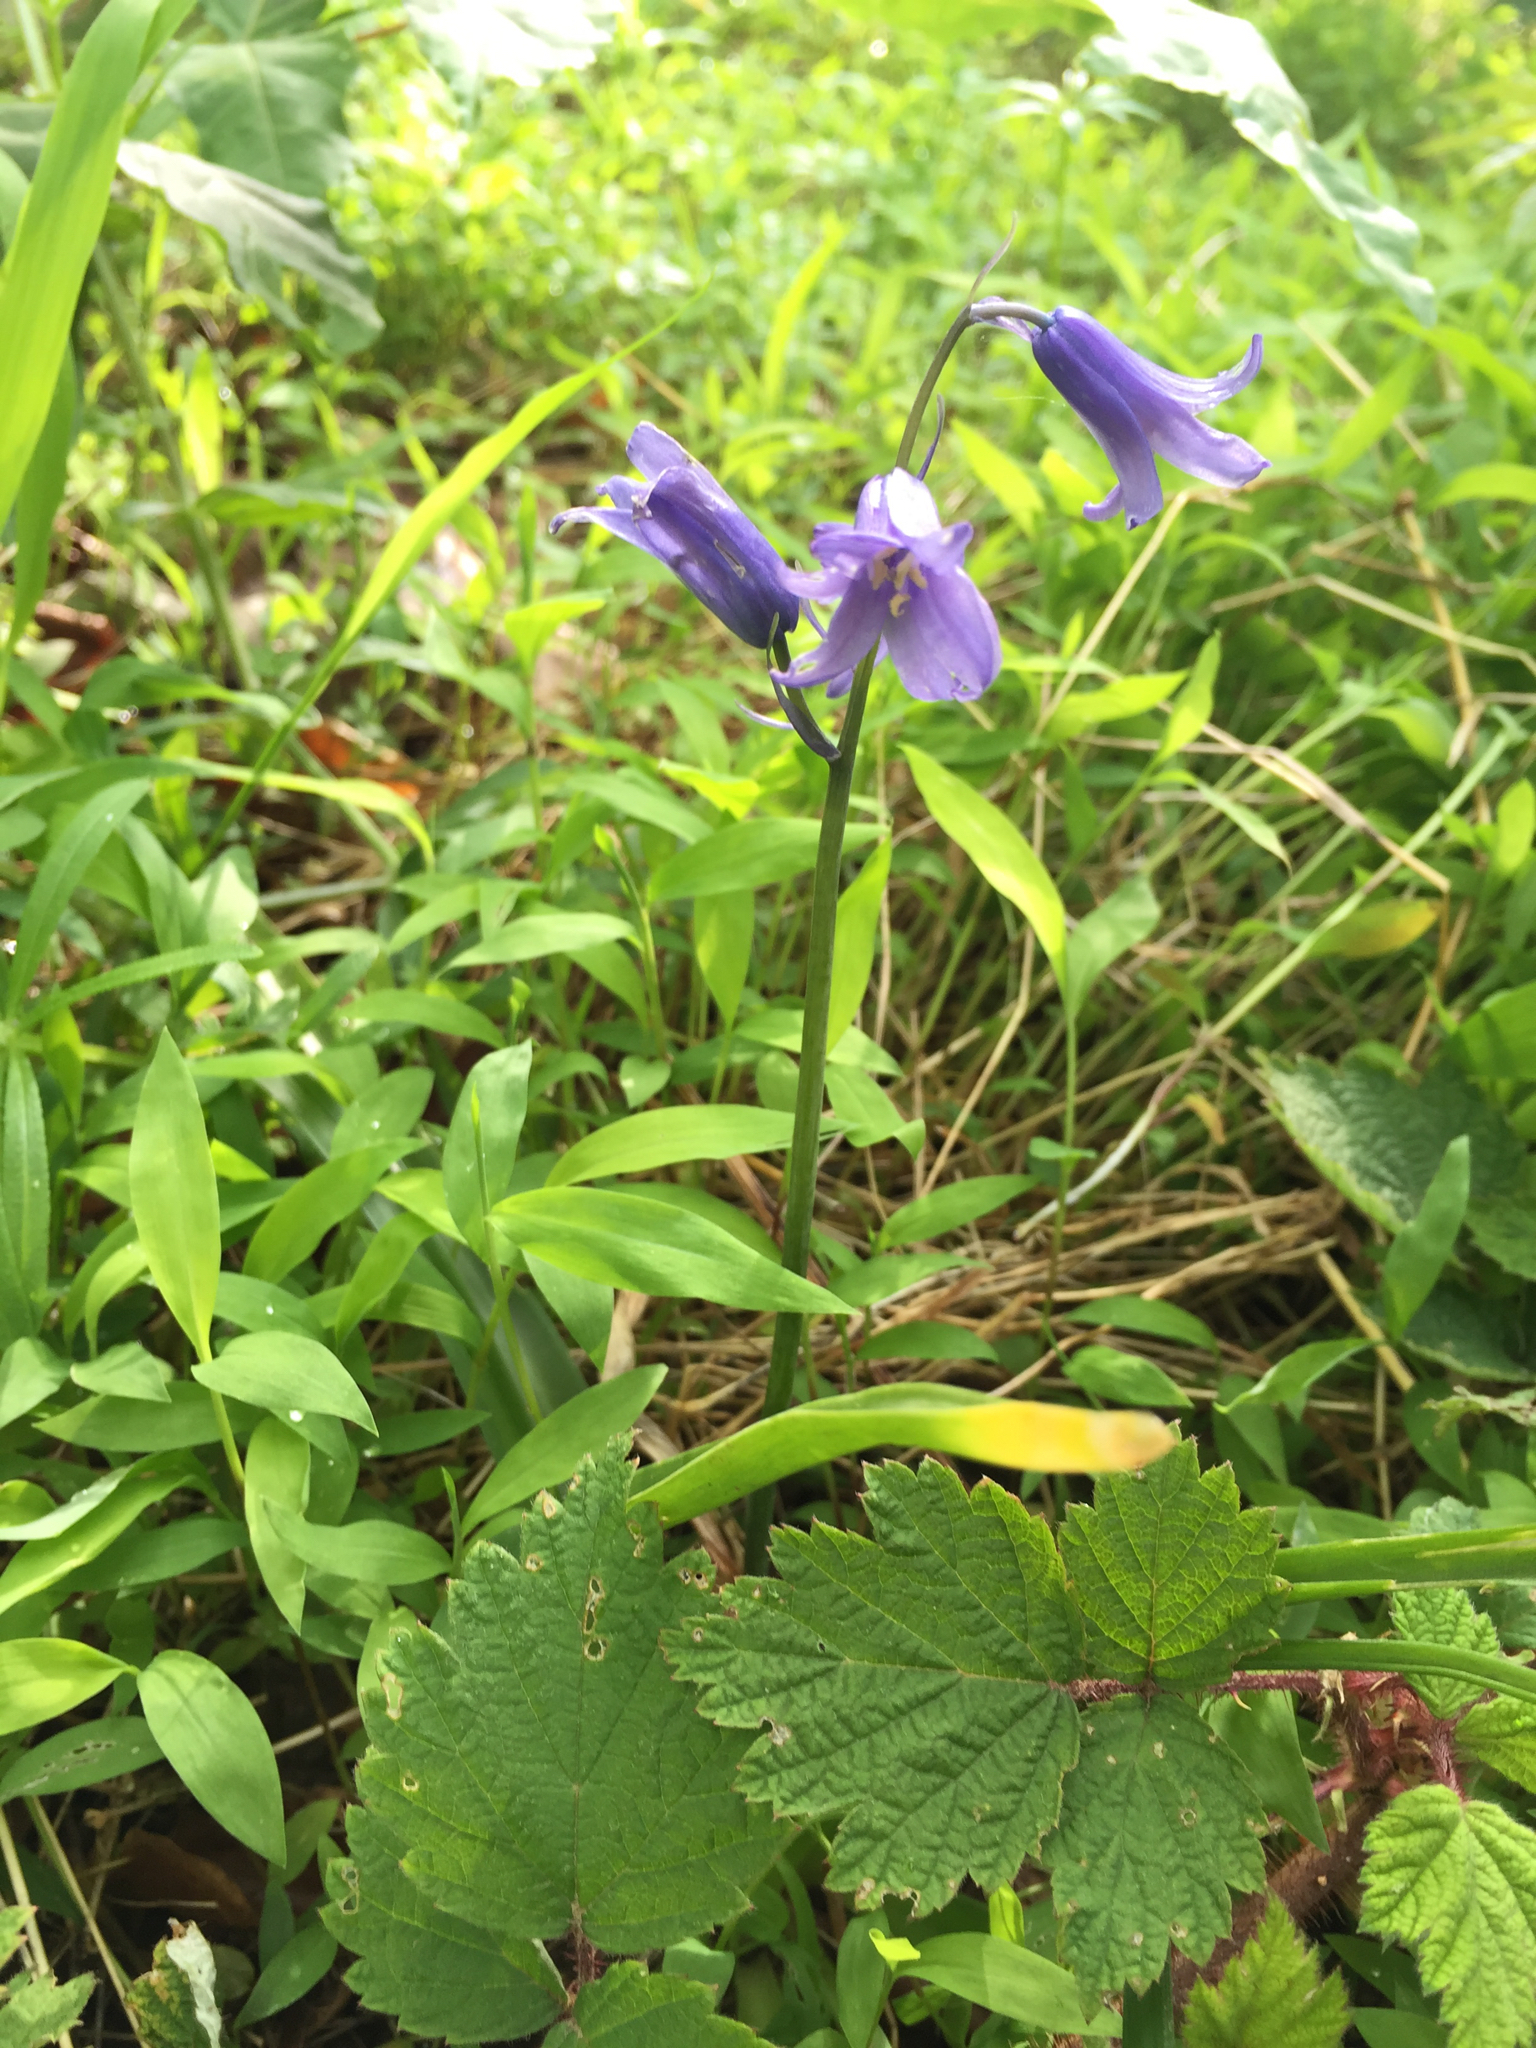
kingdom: Plantae
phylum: Tracheophyta
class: Liliopsida
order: Asparagales
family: Asparagaceae
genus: Hyacinthoides
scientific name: Hyacinthoides hispanica
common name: Spanish bluebell
